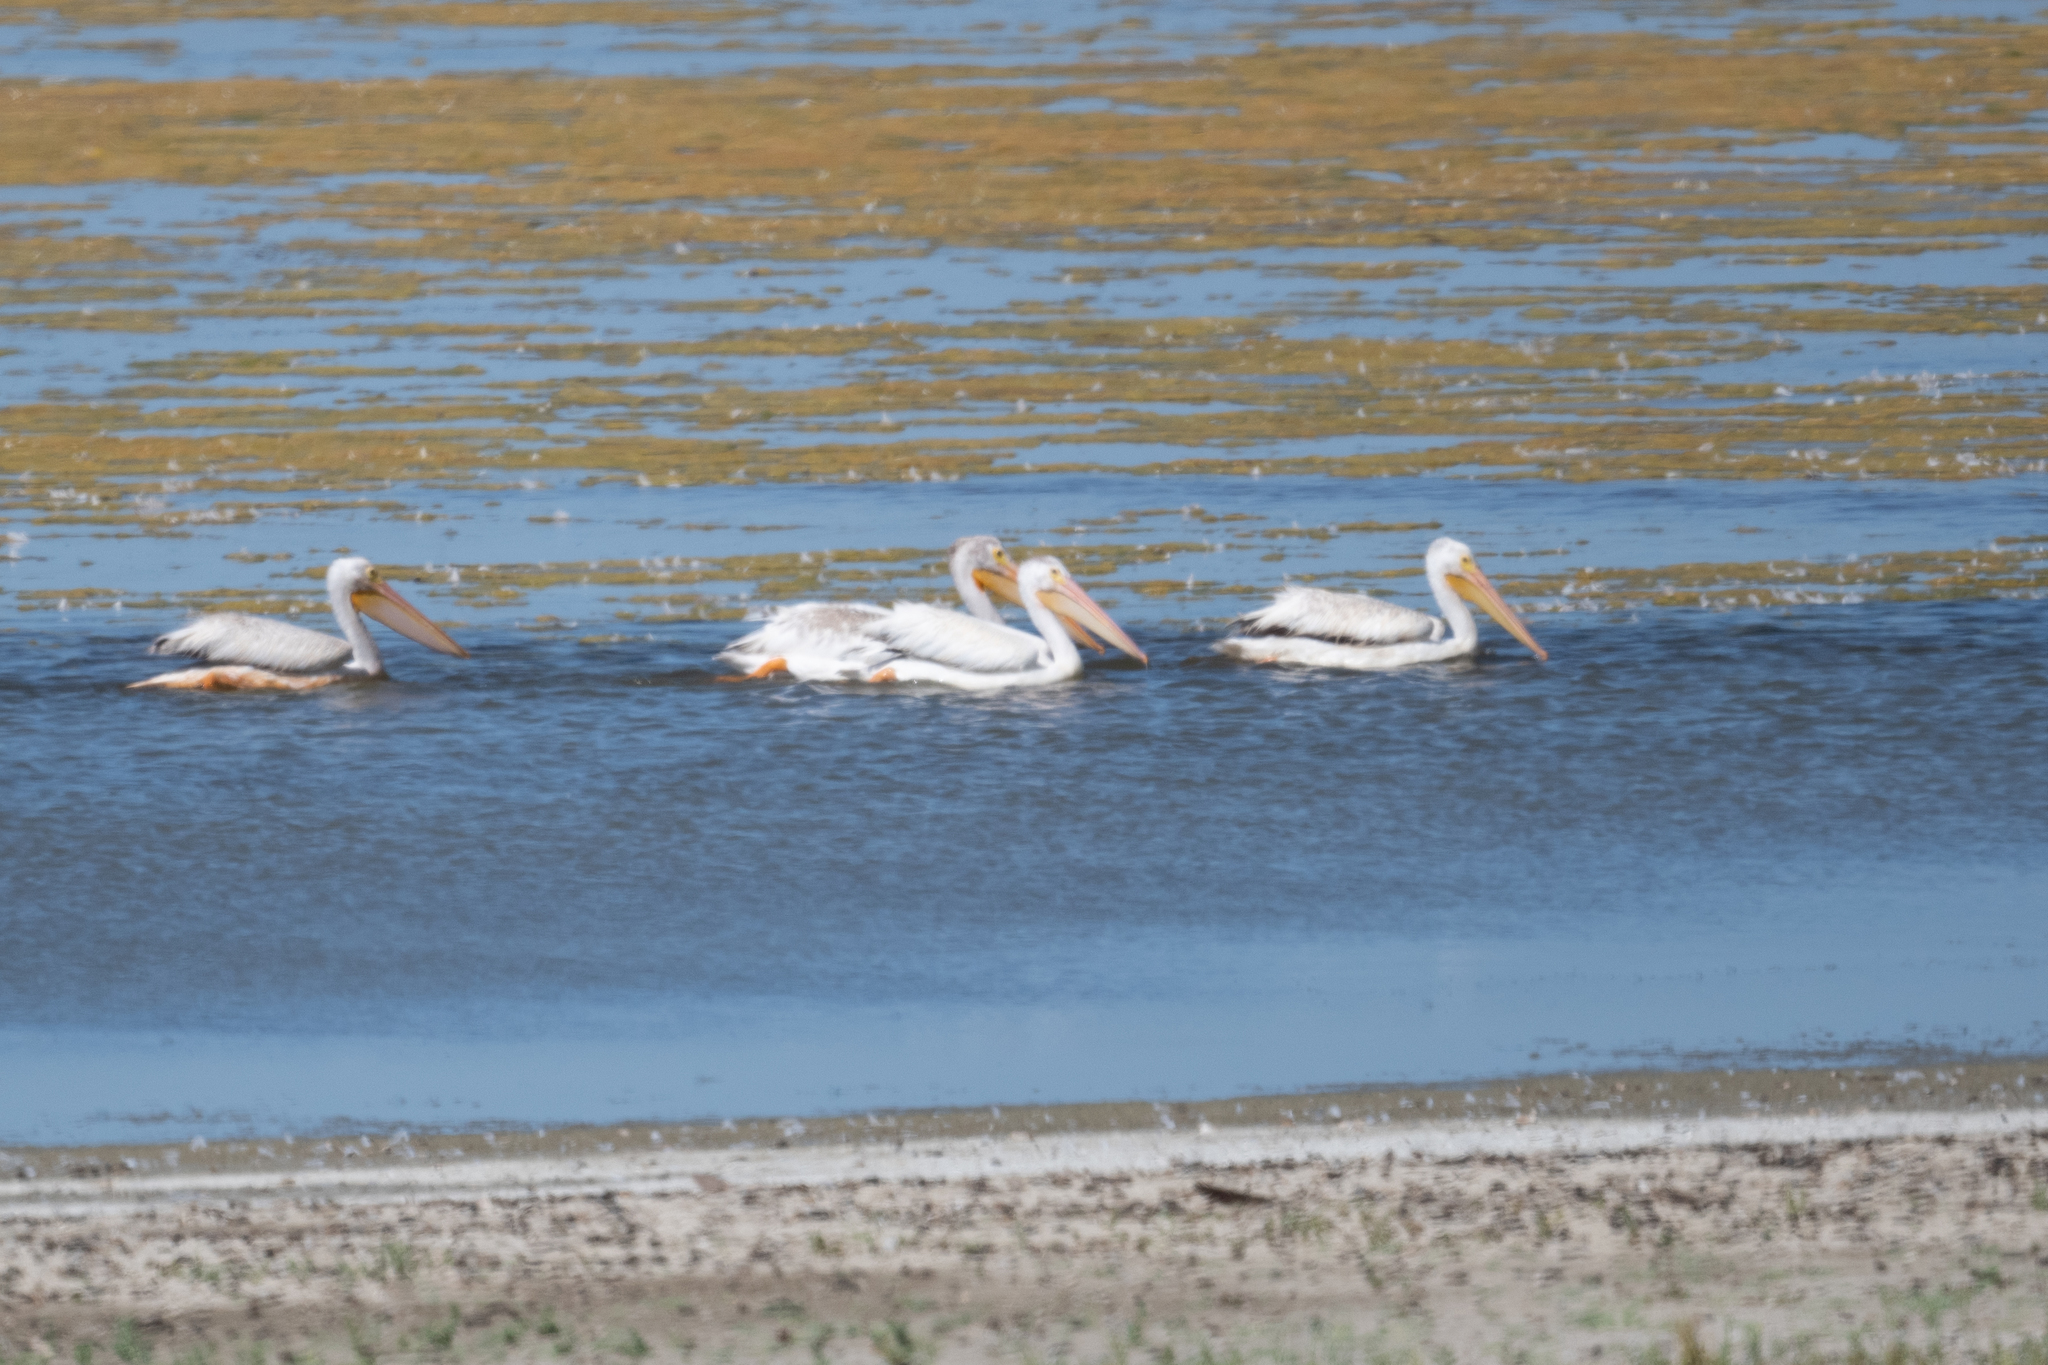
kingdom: Animalia
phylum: Chordata
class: Aves
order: Pelecaniformes
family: Pelecanidae
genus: Pelecanus
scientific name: Pelecanus erythrorhynchos
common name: American white pelican
